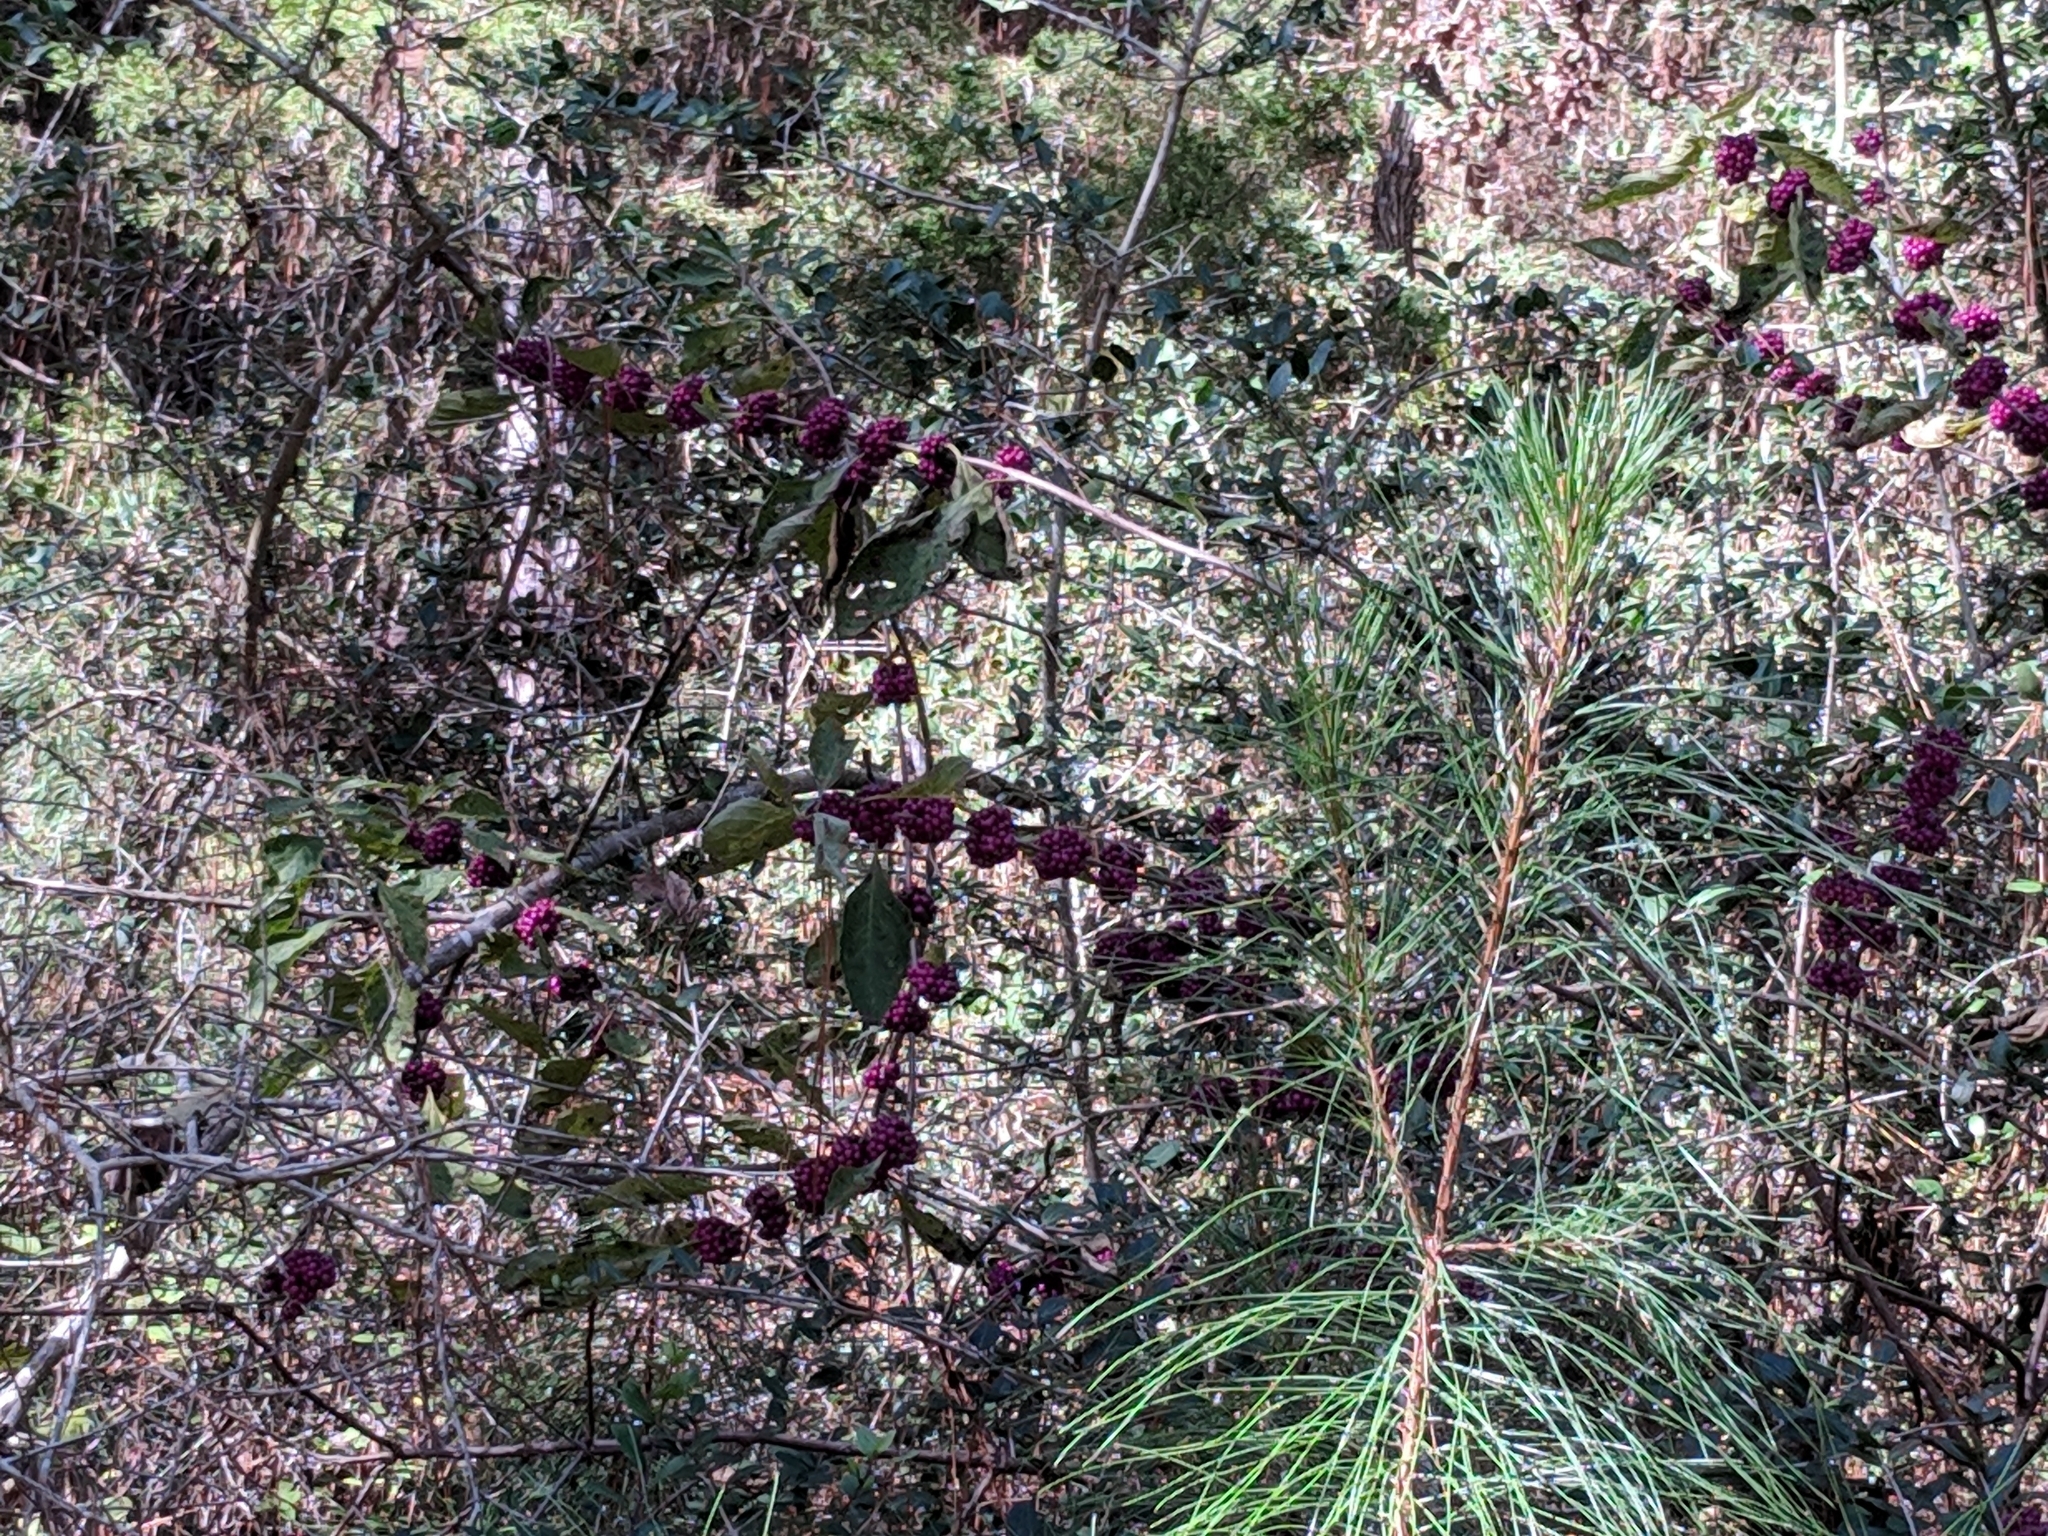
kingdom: Plantae
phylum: Tracheophyta
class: Magnoliopsida
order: Lamiales
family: Lamiaceae
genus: Callicarpa
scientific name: Callicarpa americana
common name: American beautyberry
